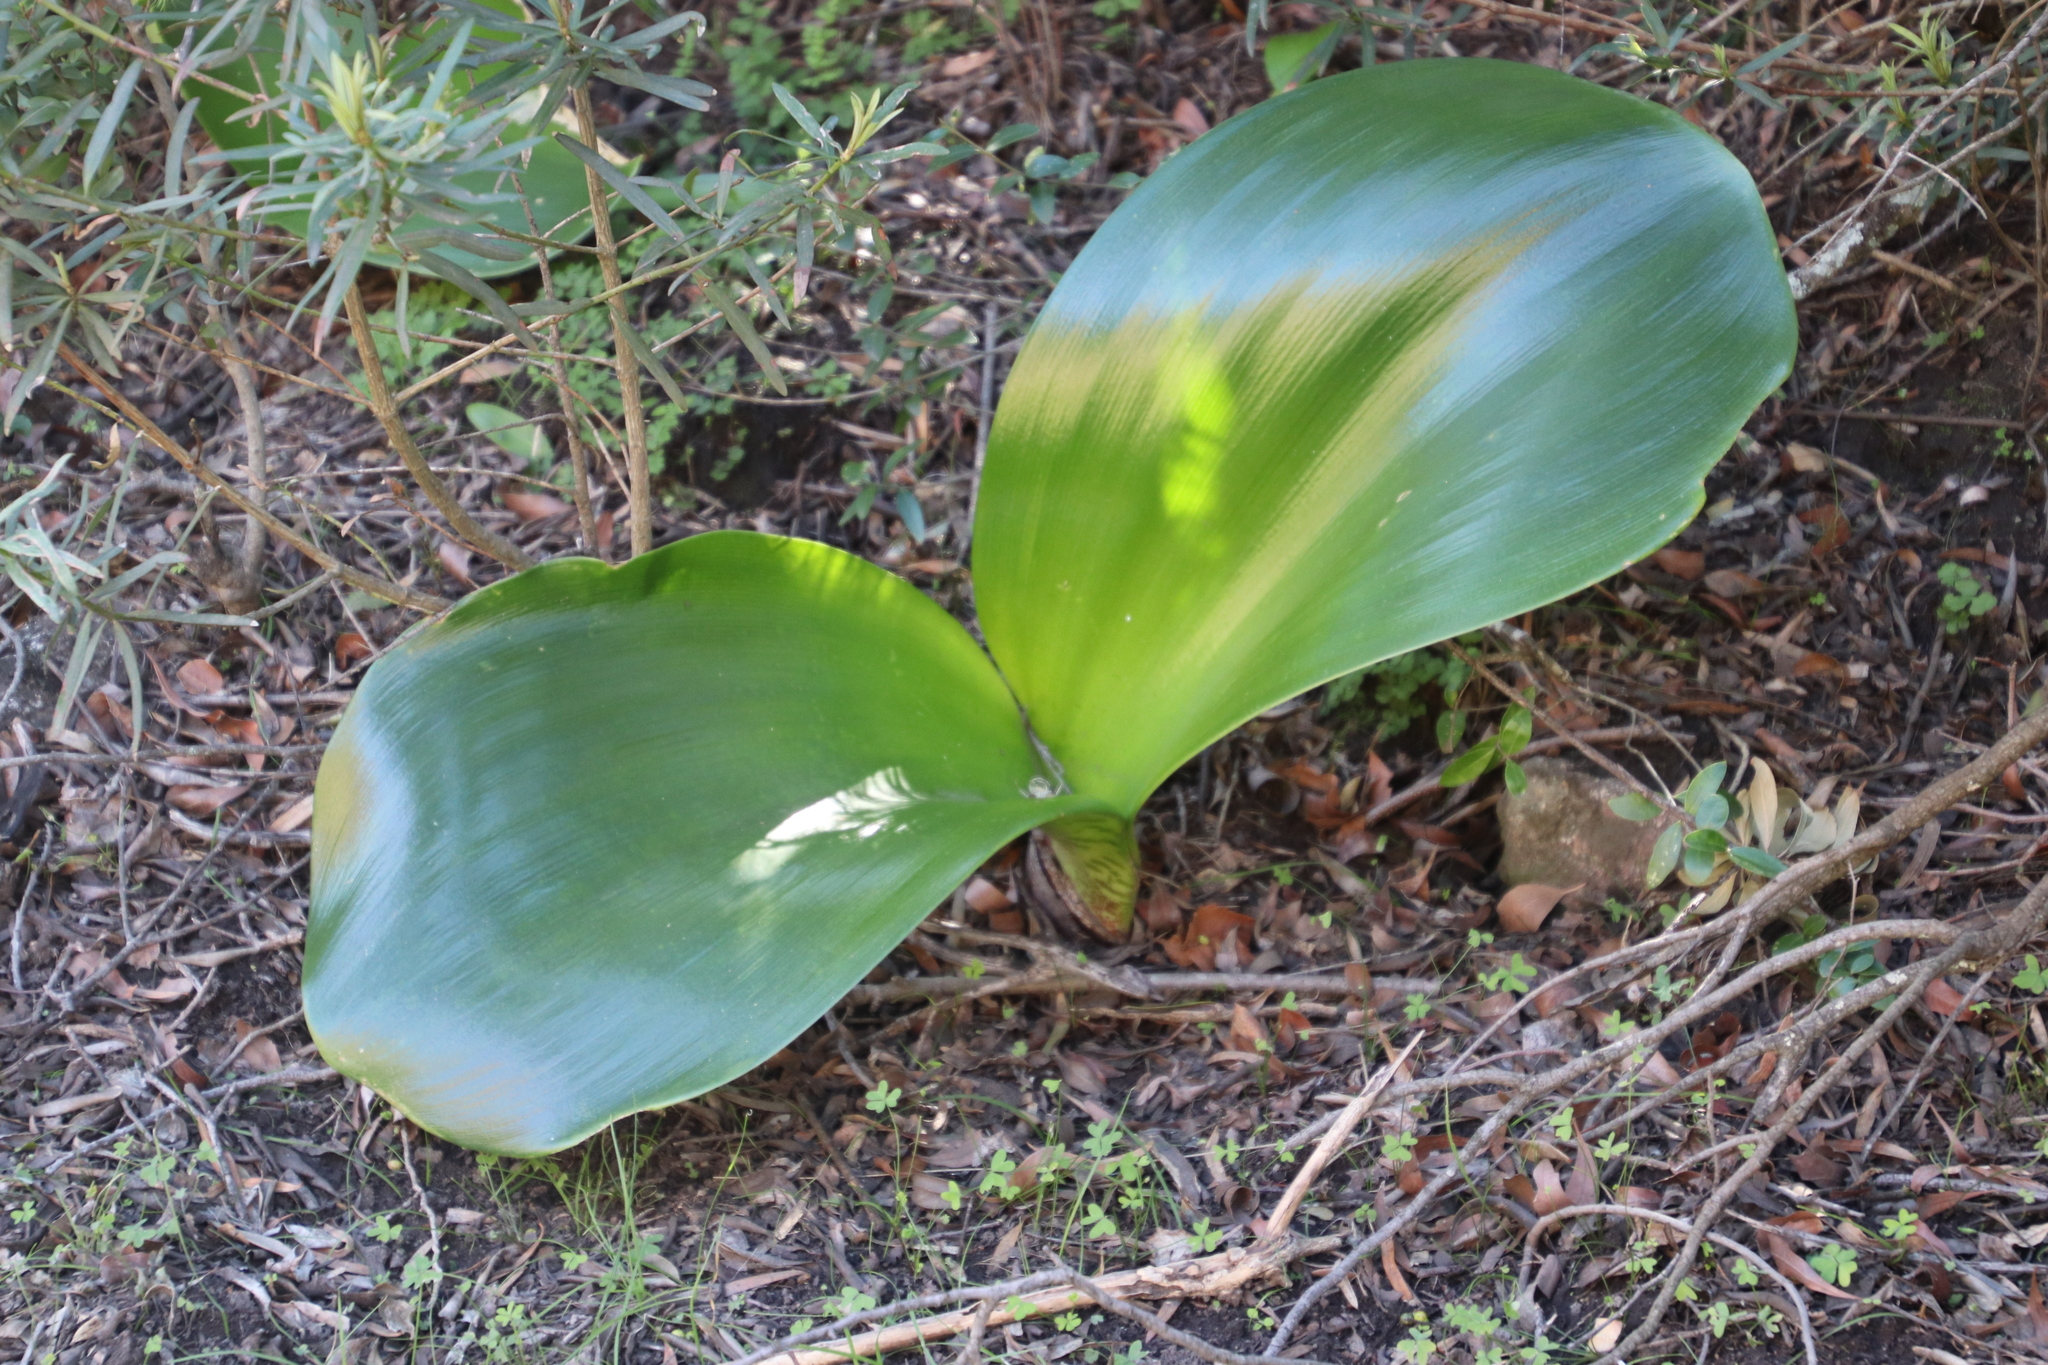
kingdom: Plantae
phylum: Tracheophyta
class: Liliopsida
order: Asparagales
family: Amaryllidaceae
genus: Haemanthus
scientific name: Haemanthus coccineus
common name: Cape-tulip
